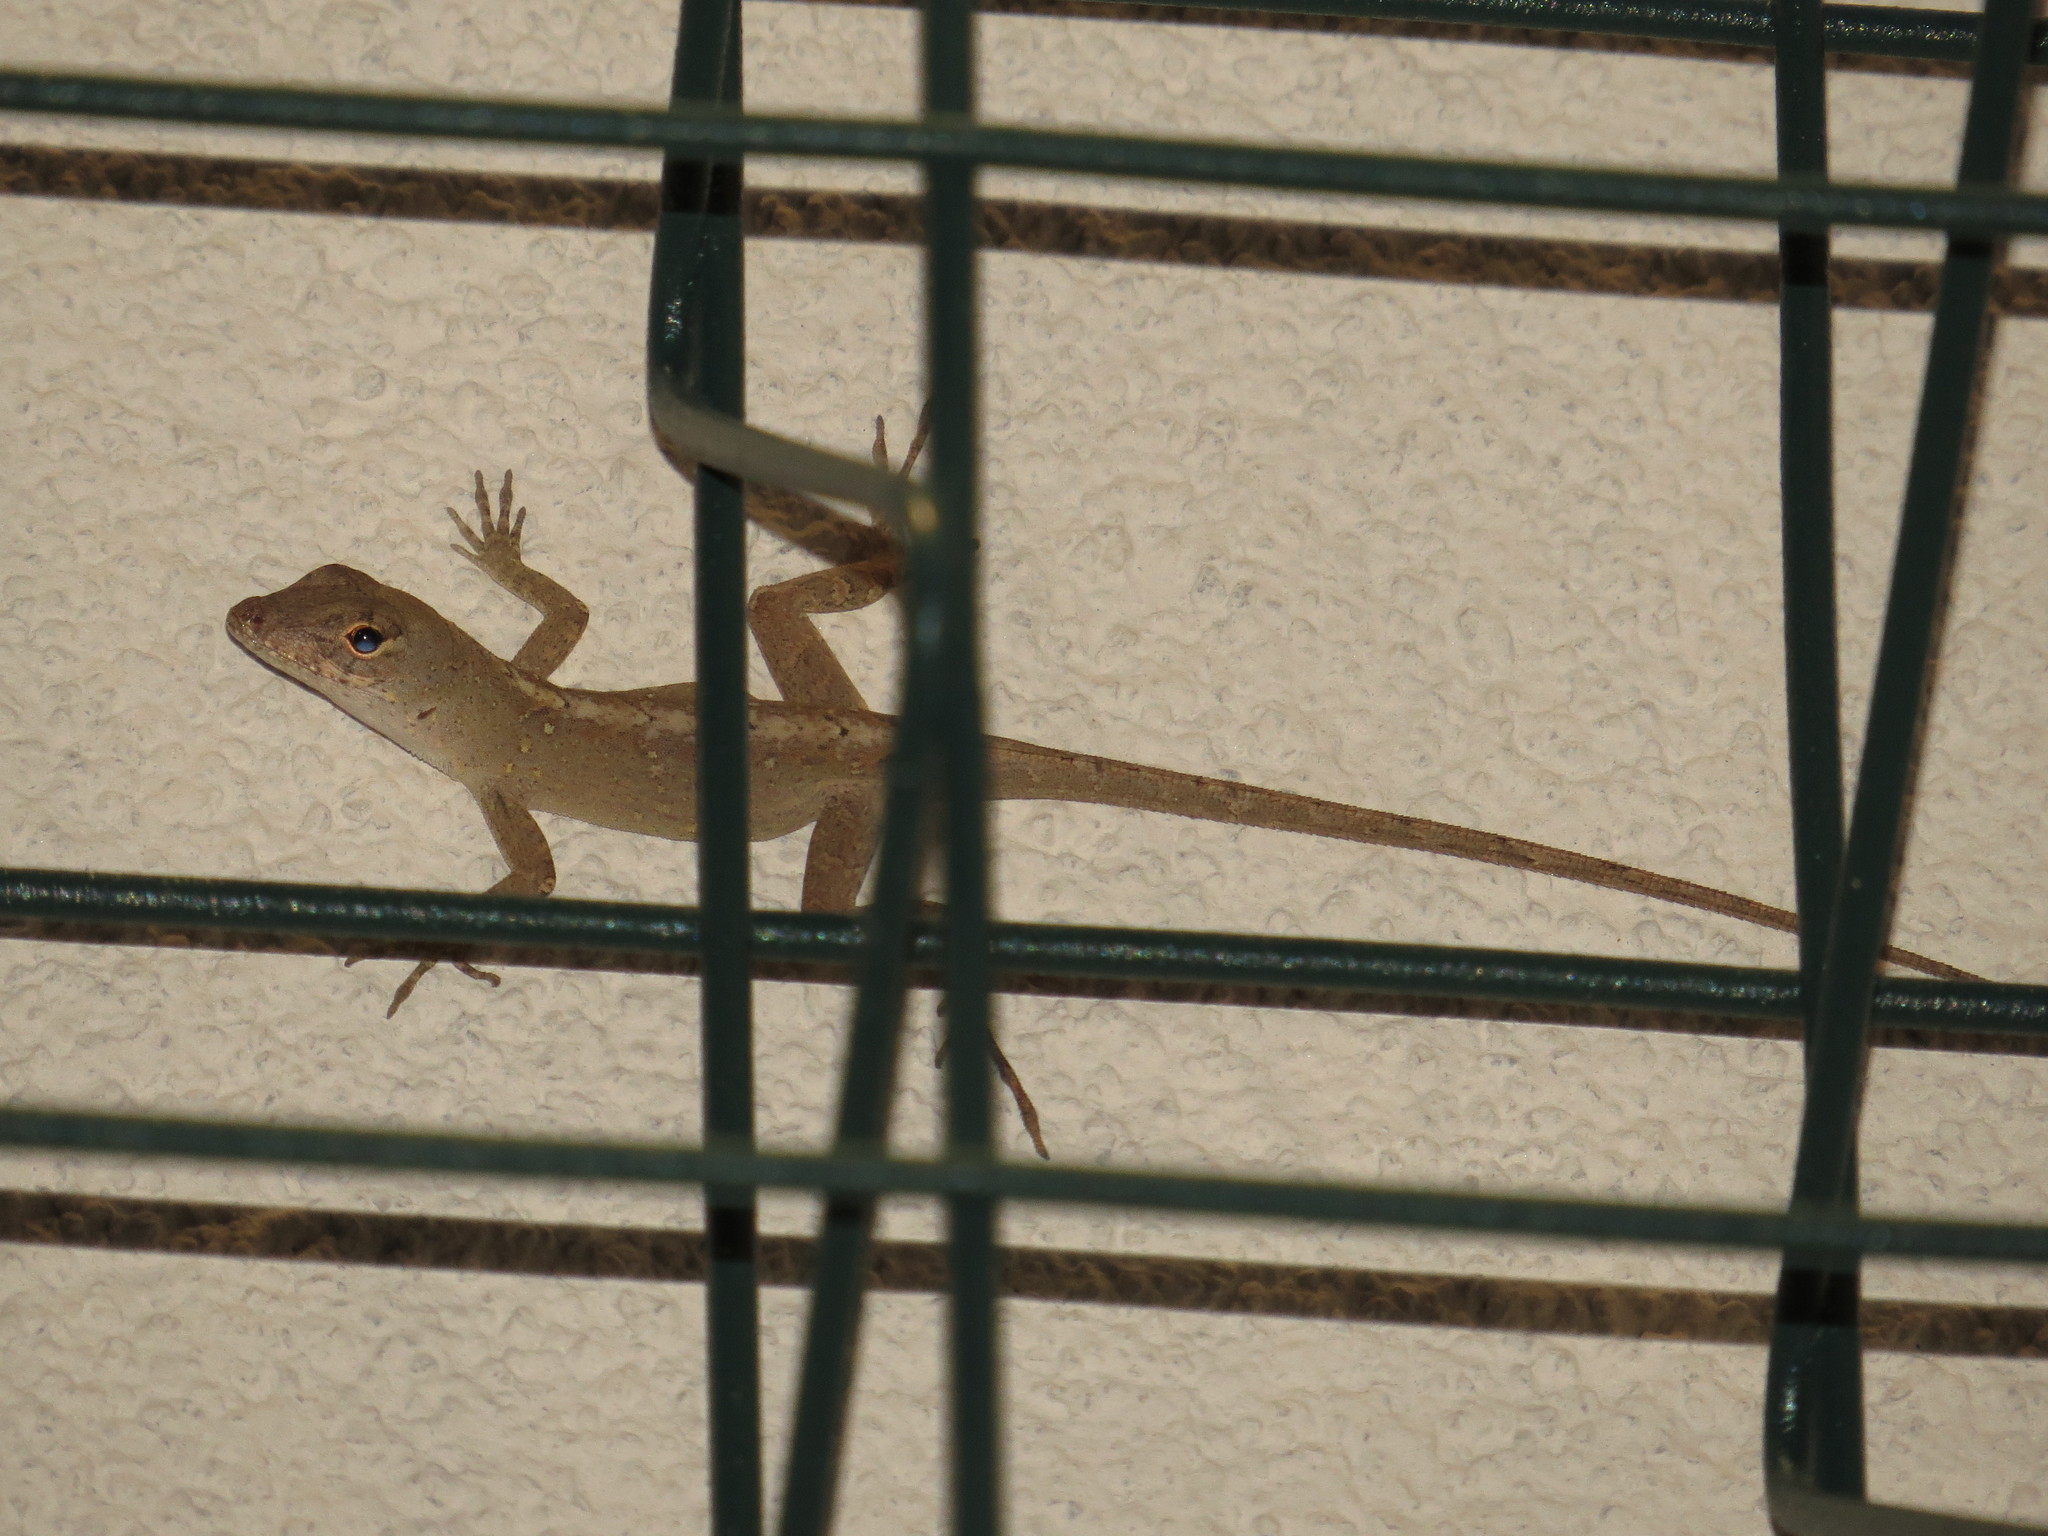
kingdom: Animalia
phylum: Chordata
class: Squamata
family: Dactyloidae
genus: Anolis
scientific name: Anolis sagrei
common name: Brown anole
